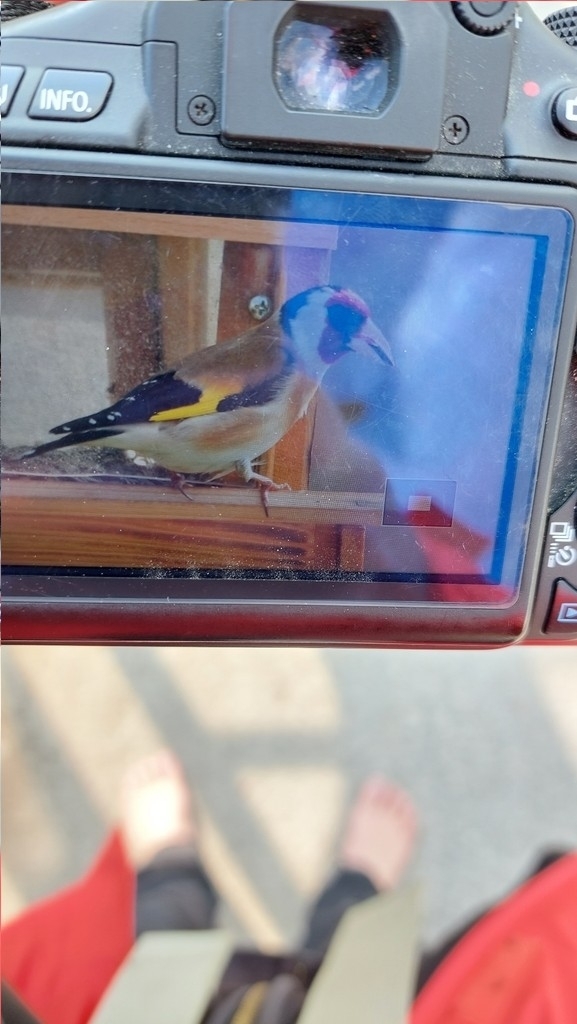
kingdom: Animalia
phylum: Chordata
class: Aves
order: Passeriformes
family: Fringillidae
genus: Carduelis
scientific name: Carduelis carduelis
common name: European goldfinch
